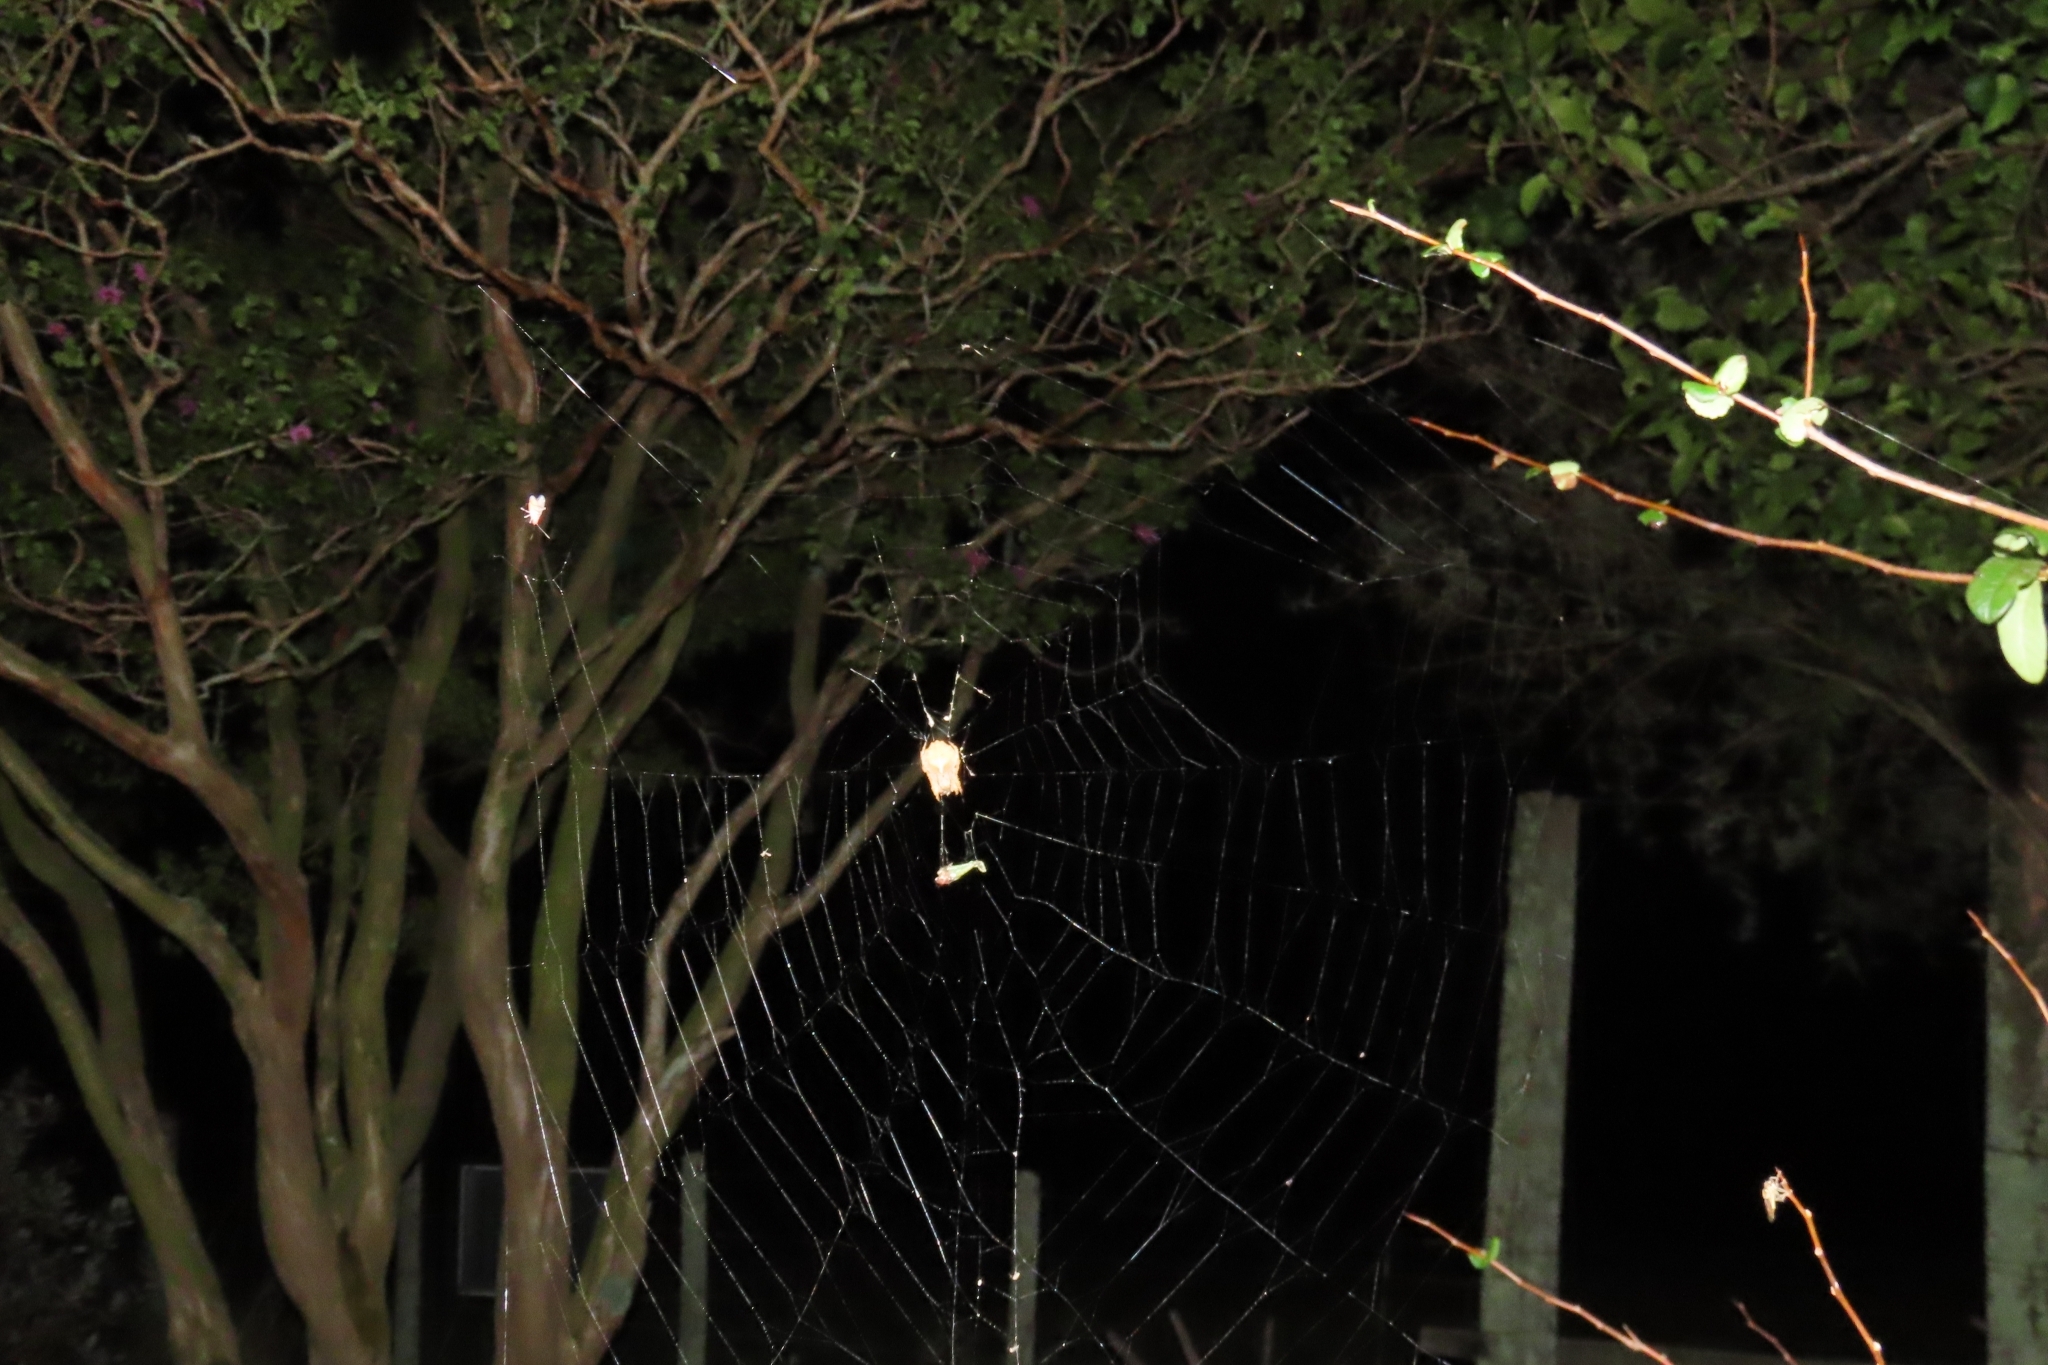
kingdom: Animalia
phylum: Arthropoda
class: Arachnida
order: Araneae
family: Araneidae
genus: Parawixia
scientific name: Parawixia audax
